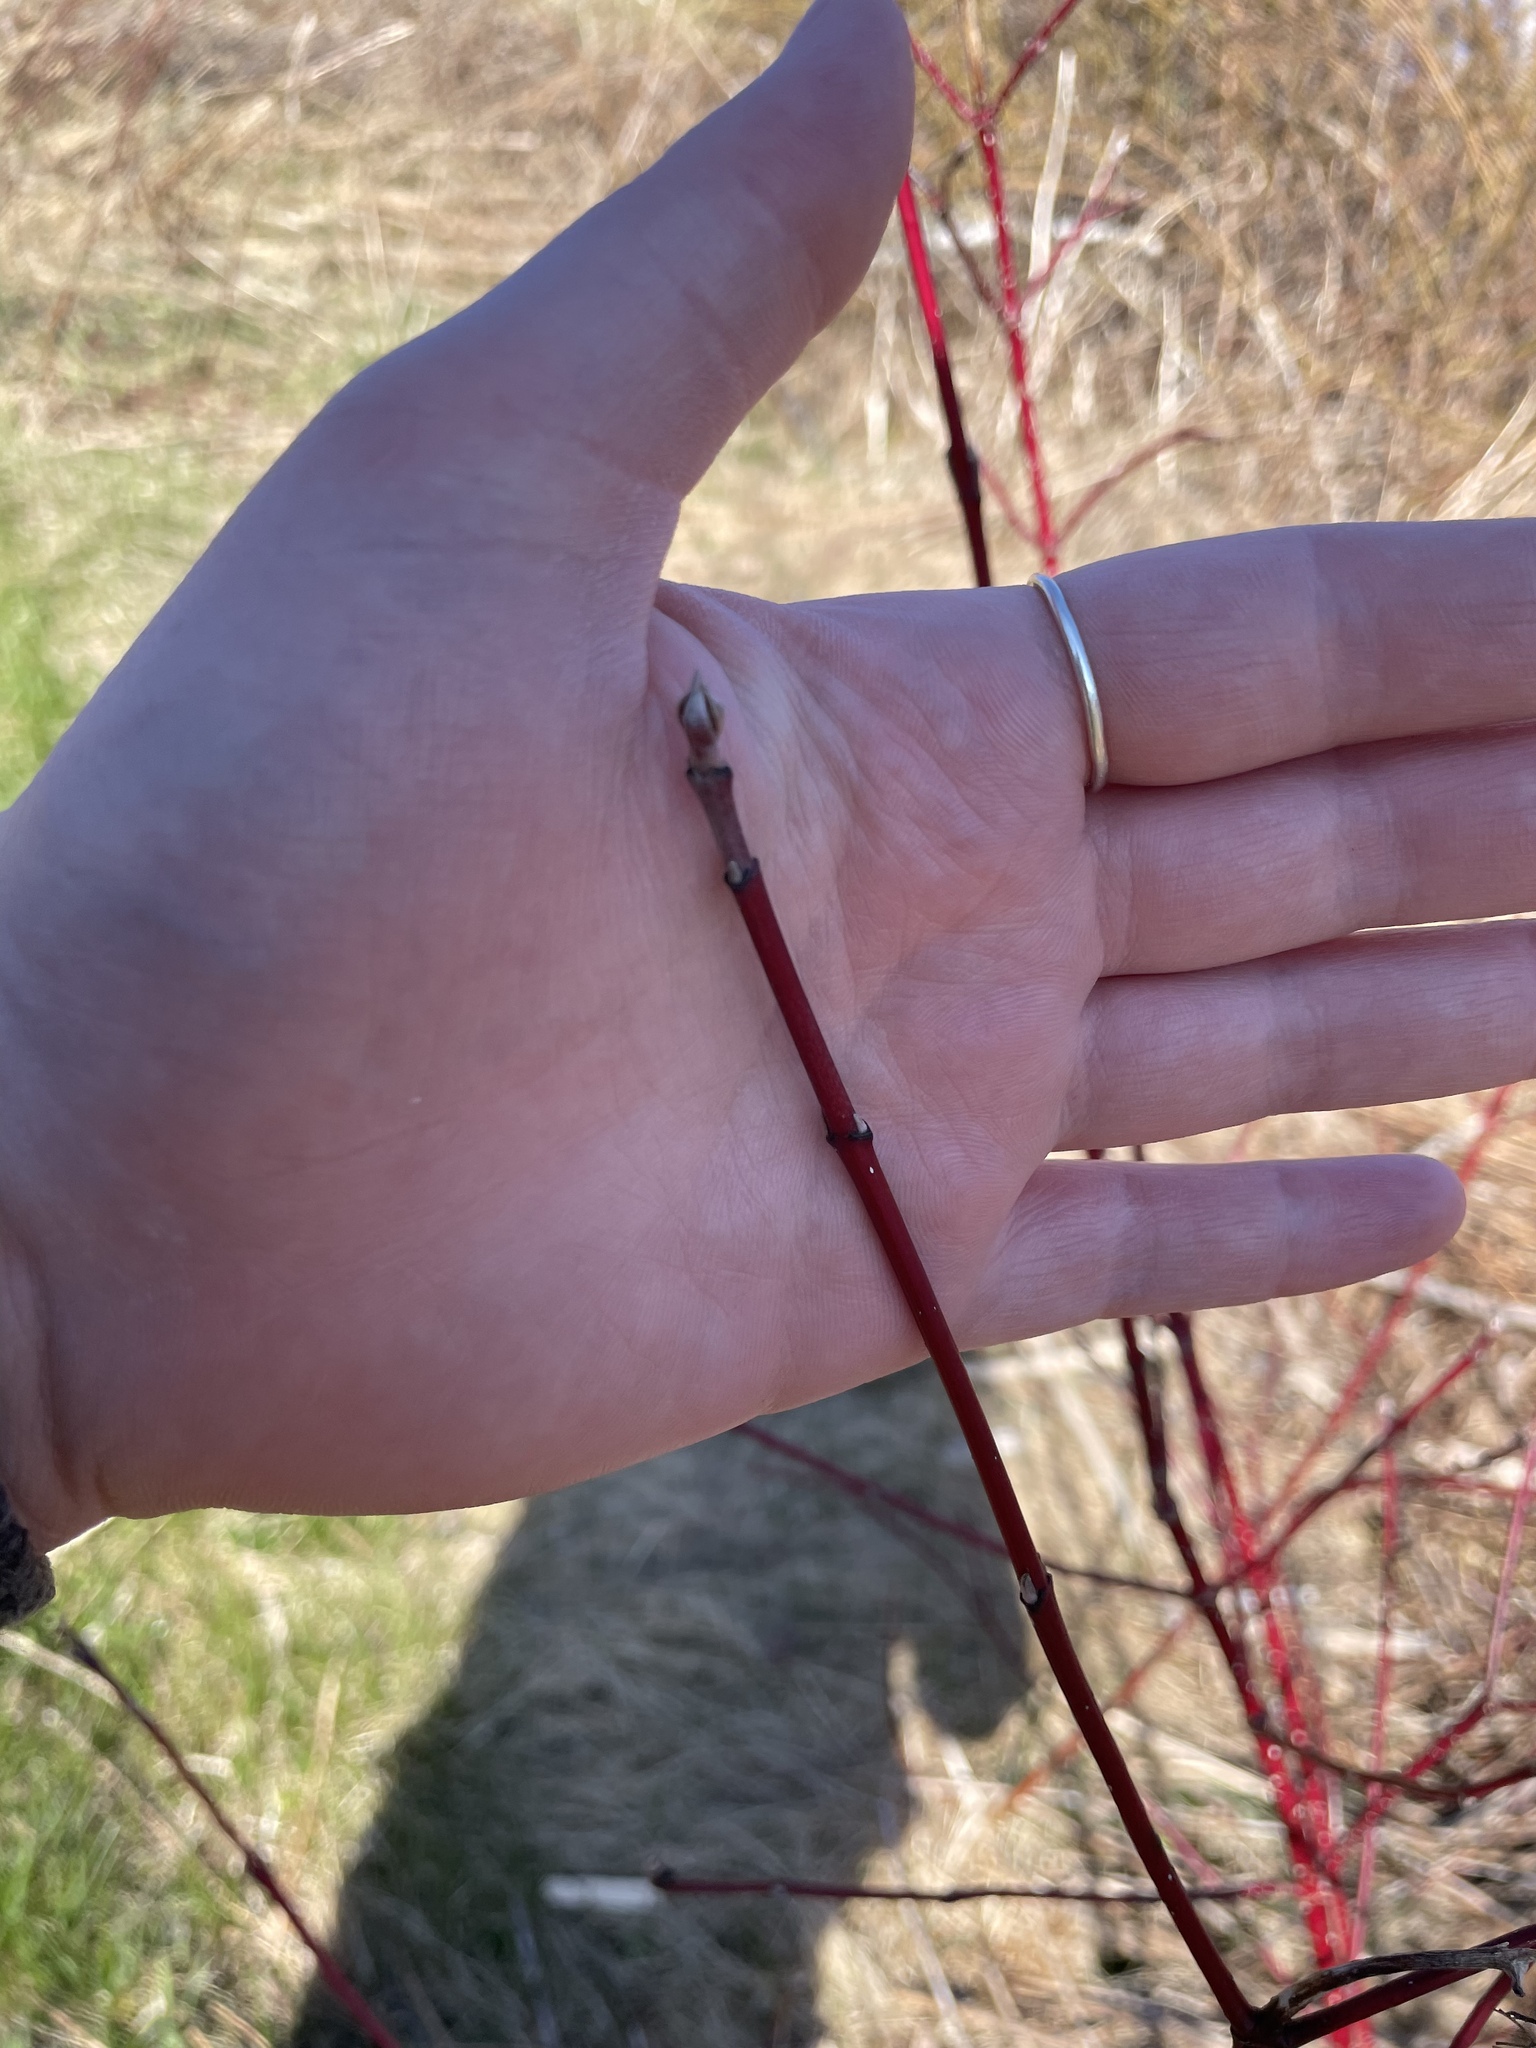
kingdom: Plantae
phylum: Tracheophyta
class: Magnoliopsida
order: Cornales
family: Cornaceae
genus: Cornus
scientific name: Cornus sericea
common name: Red-osier dogwood
